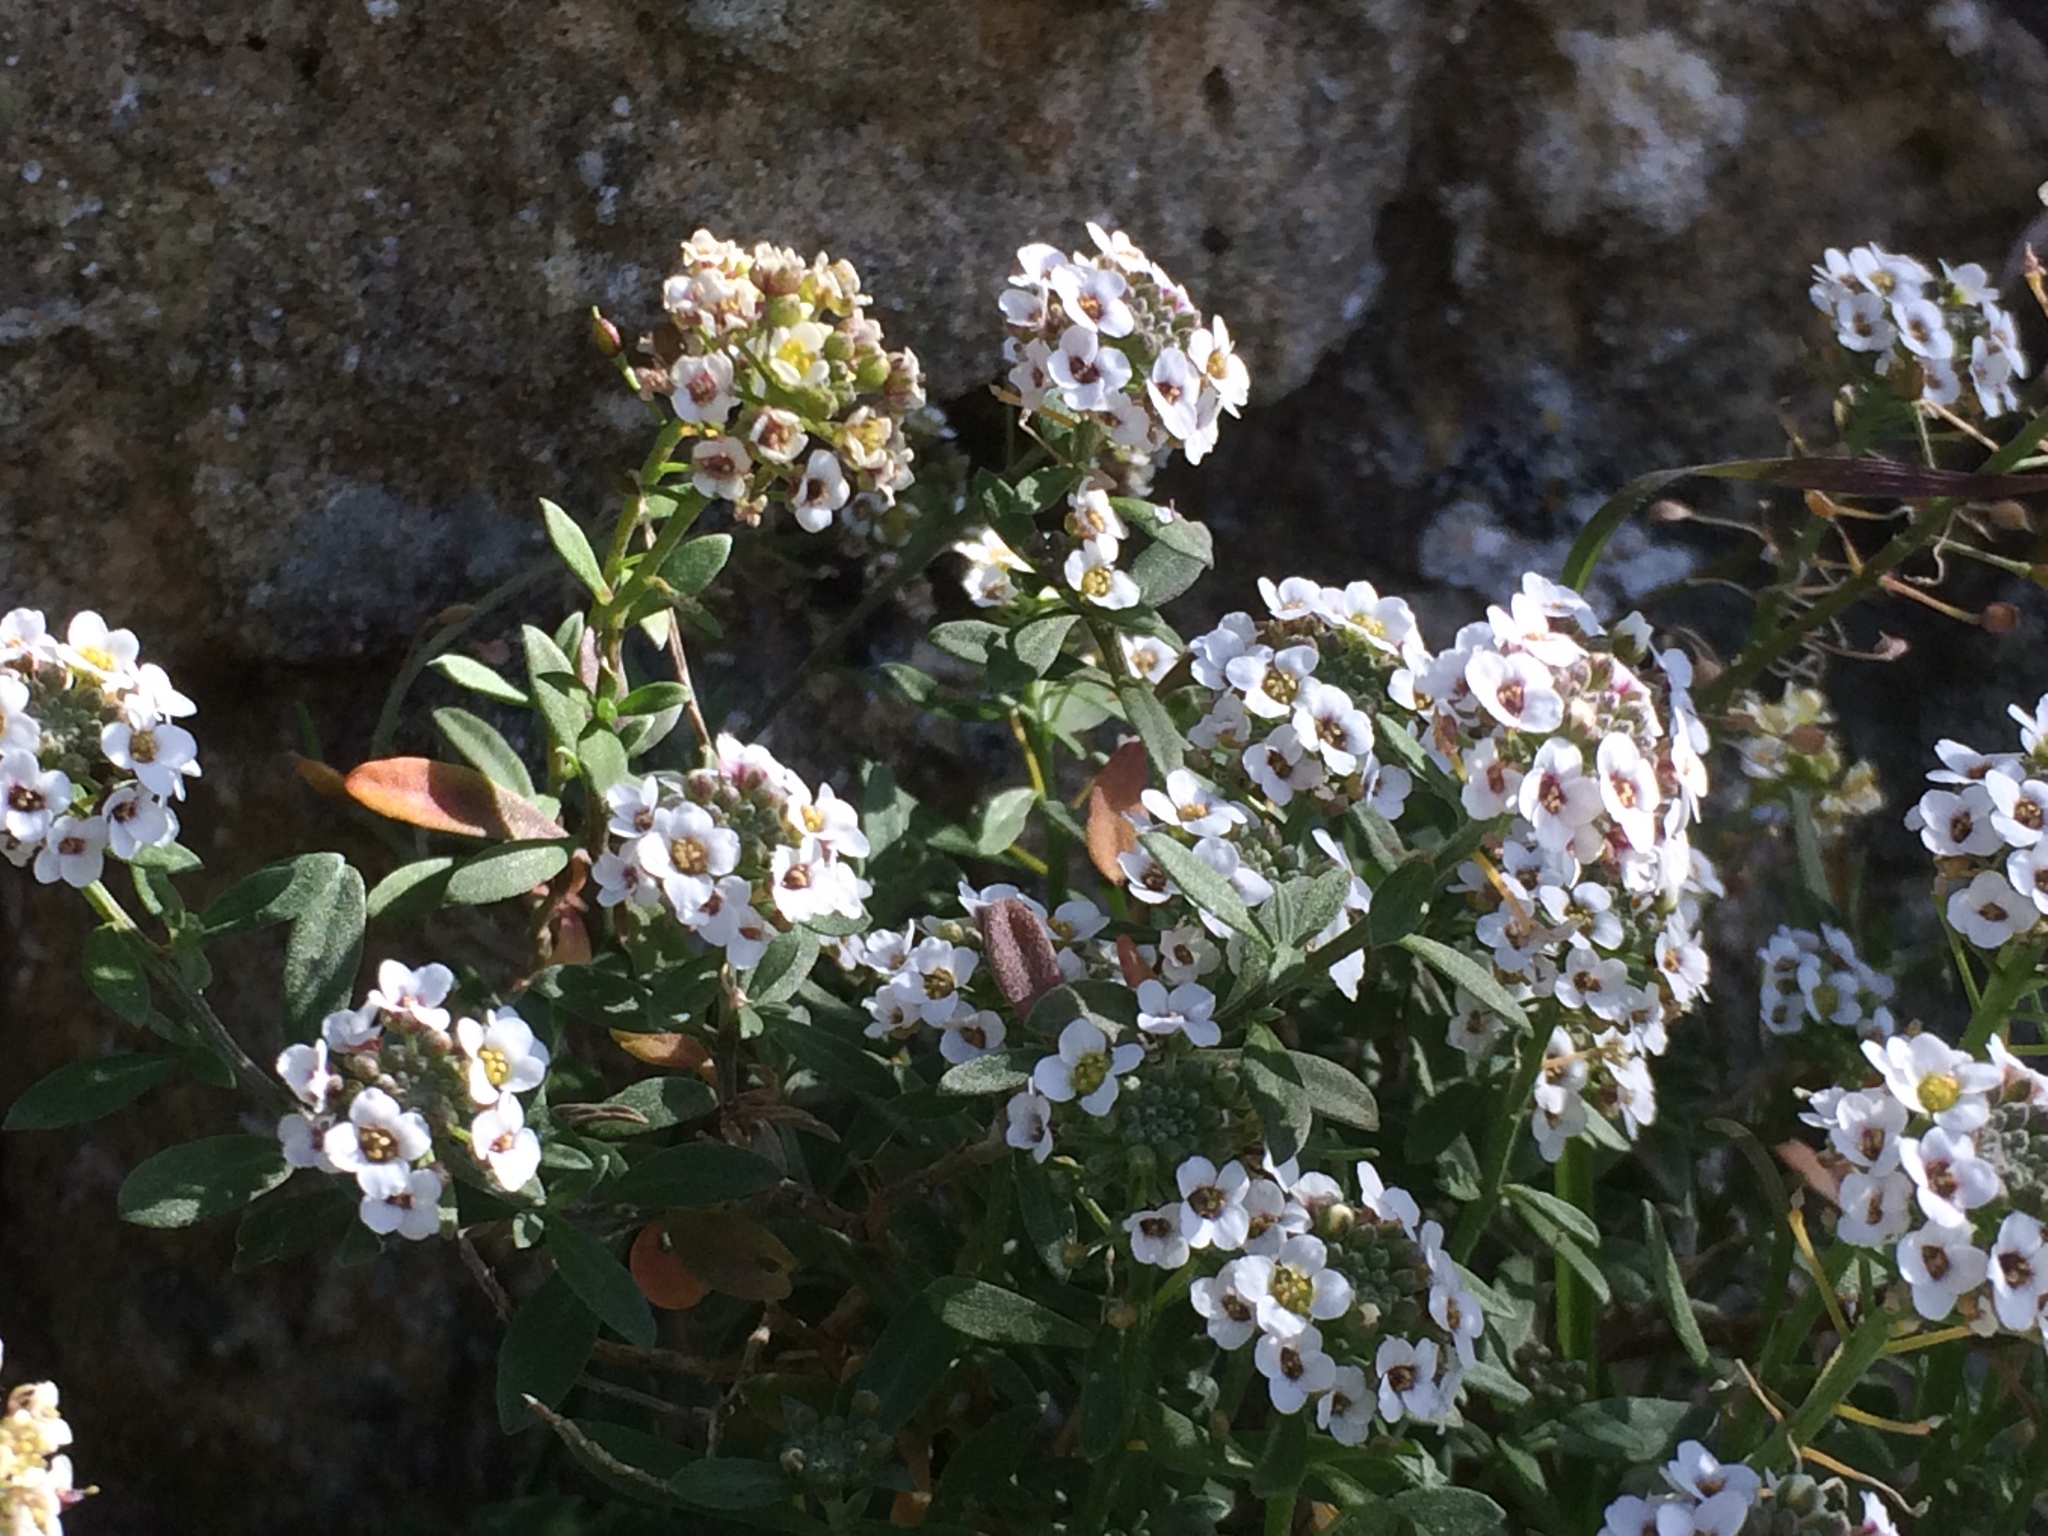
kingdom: Plantae
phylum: Tracheophyta
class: Magnoliopsida
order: Brassicales
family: Brassicaceae
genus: Lobularia
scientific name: Lobularia maritima
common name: Sweet alison
